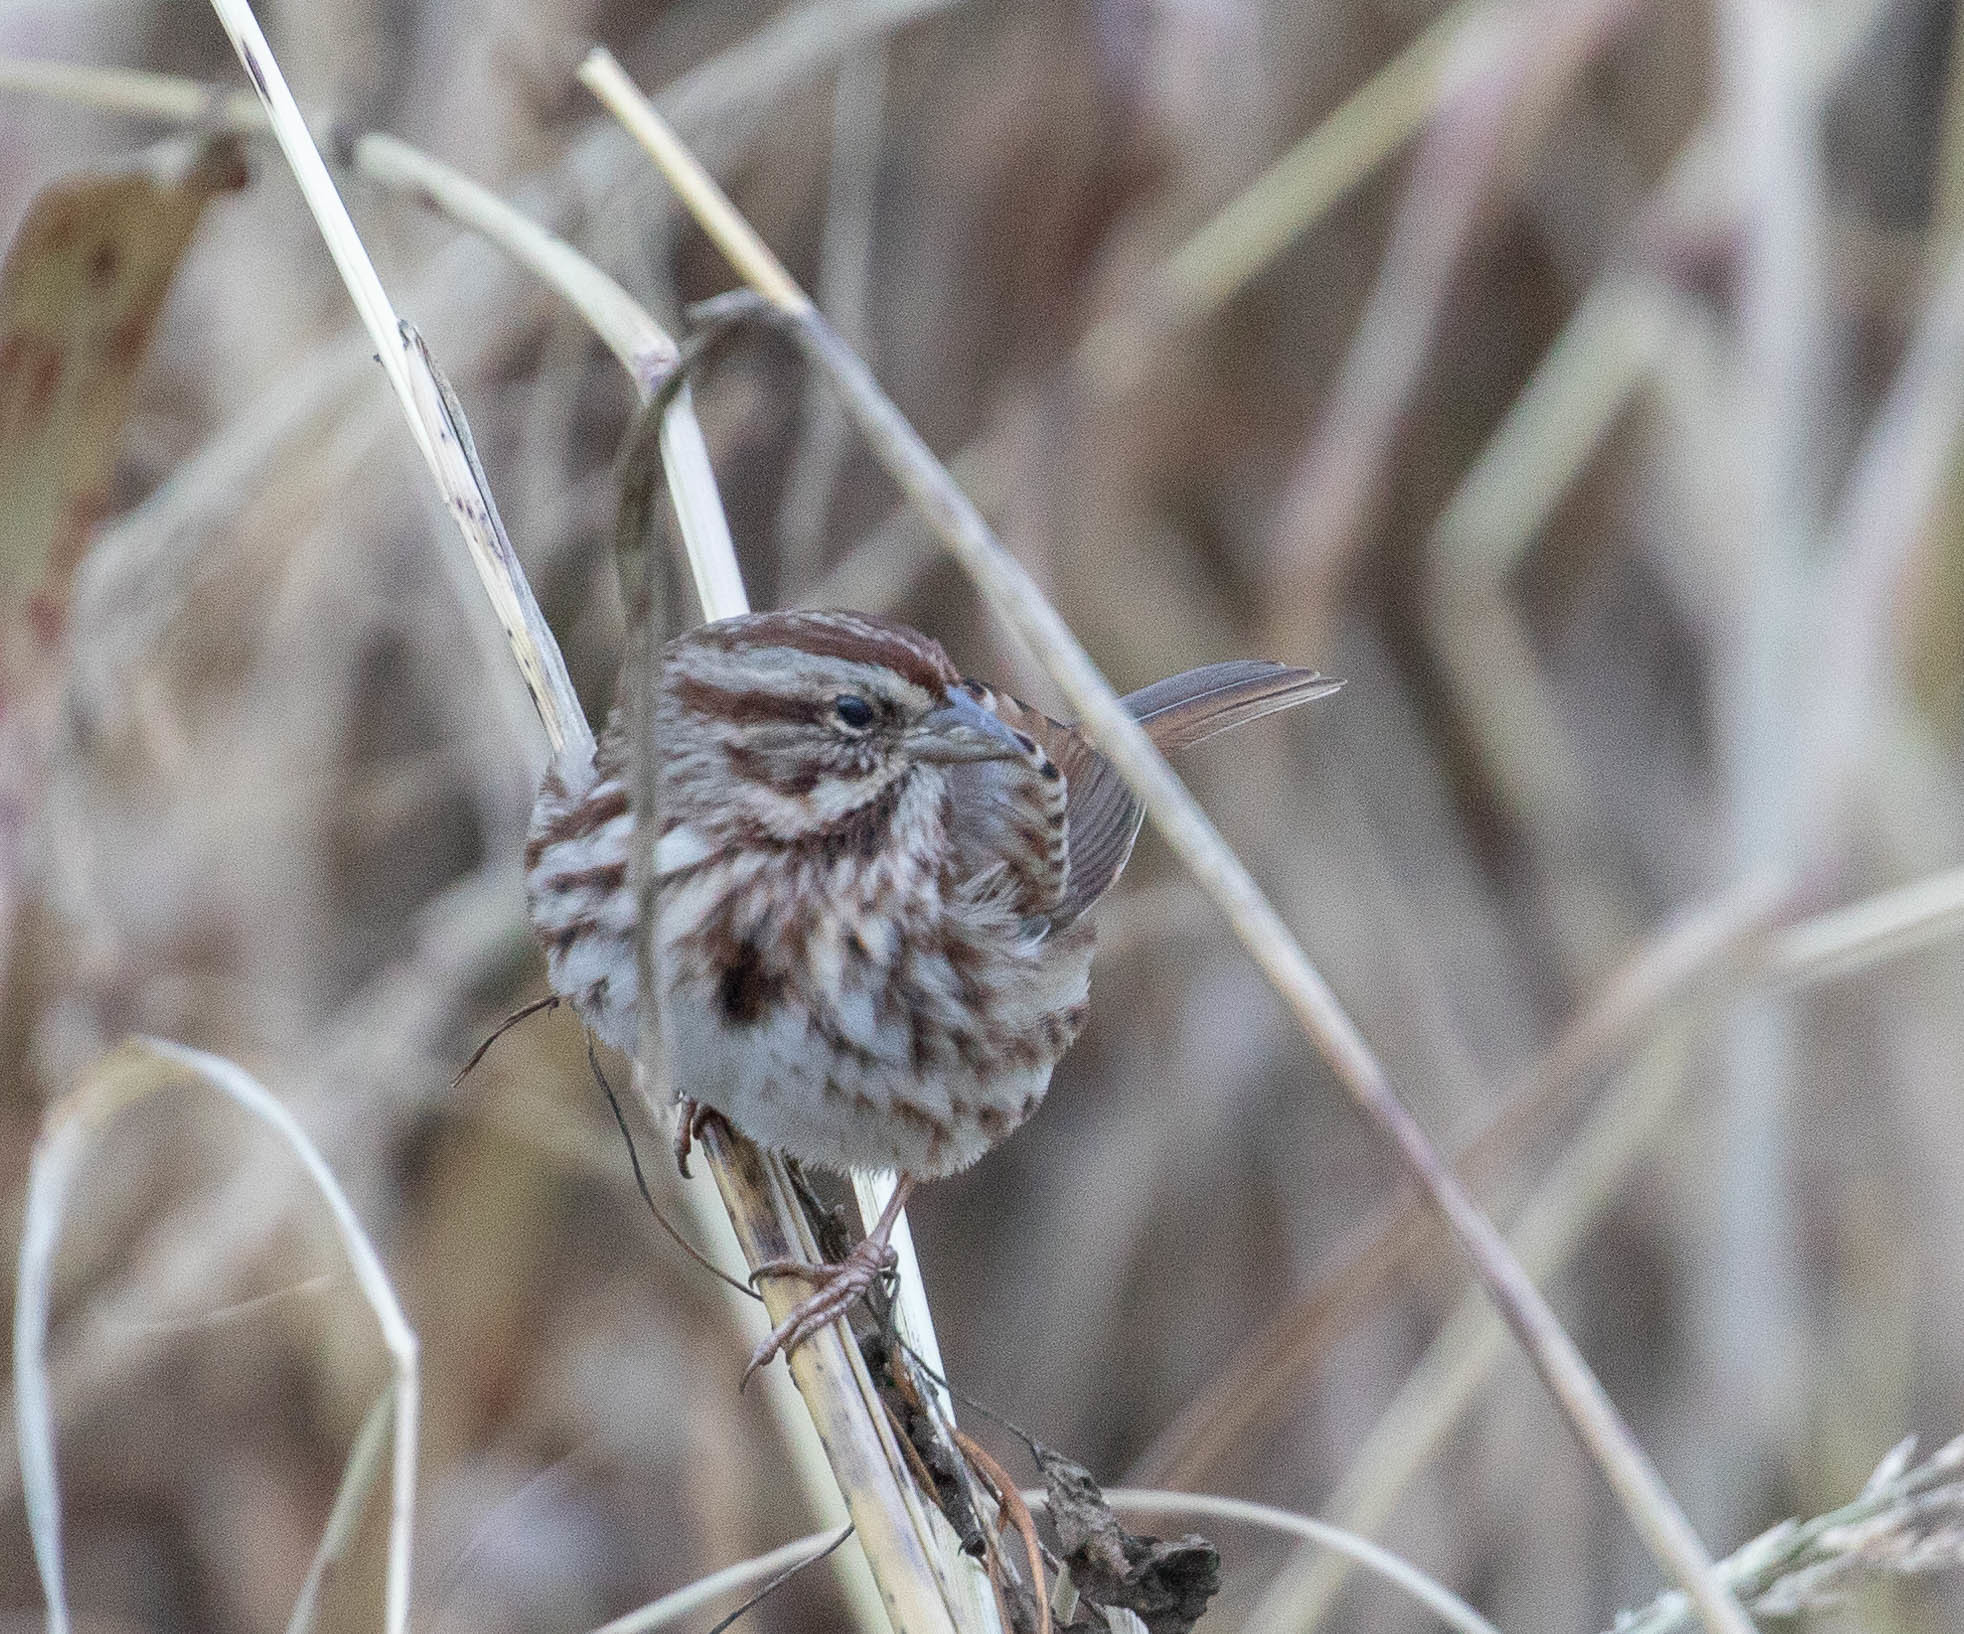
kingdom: Animalia
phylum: Chordata
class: Aves
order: Passeriformes
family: Passerellidae
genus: Melospiza
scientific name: Melospiza melodia
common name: Song sparrow
